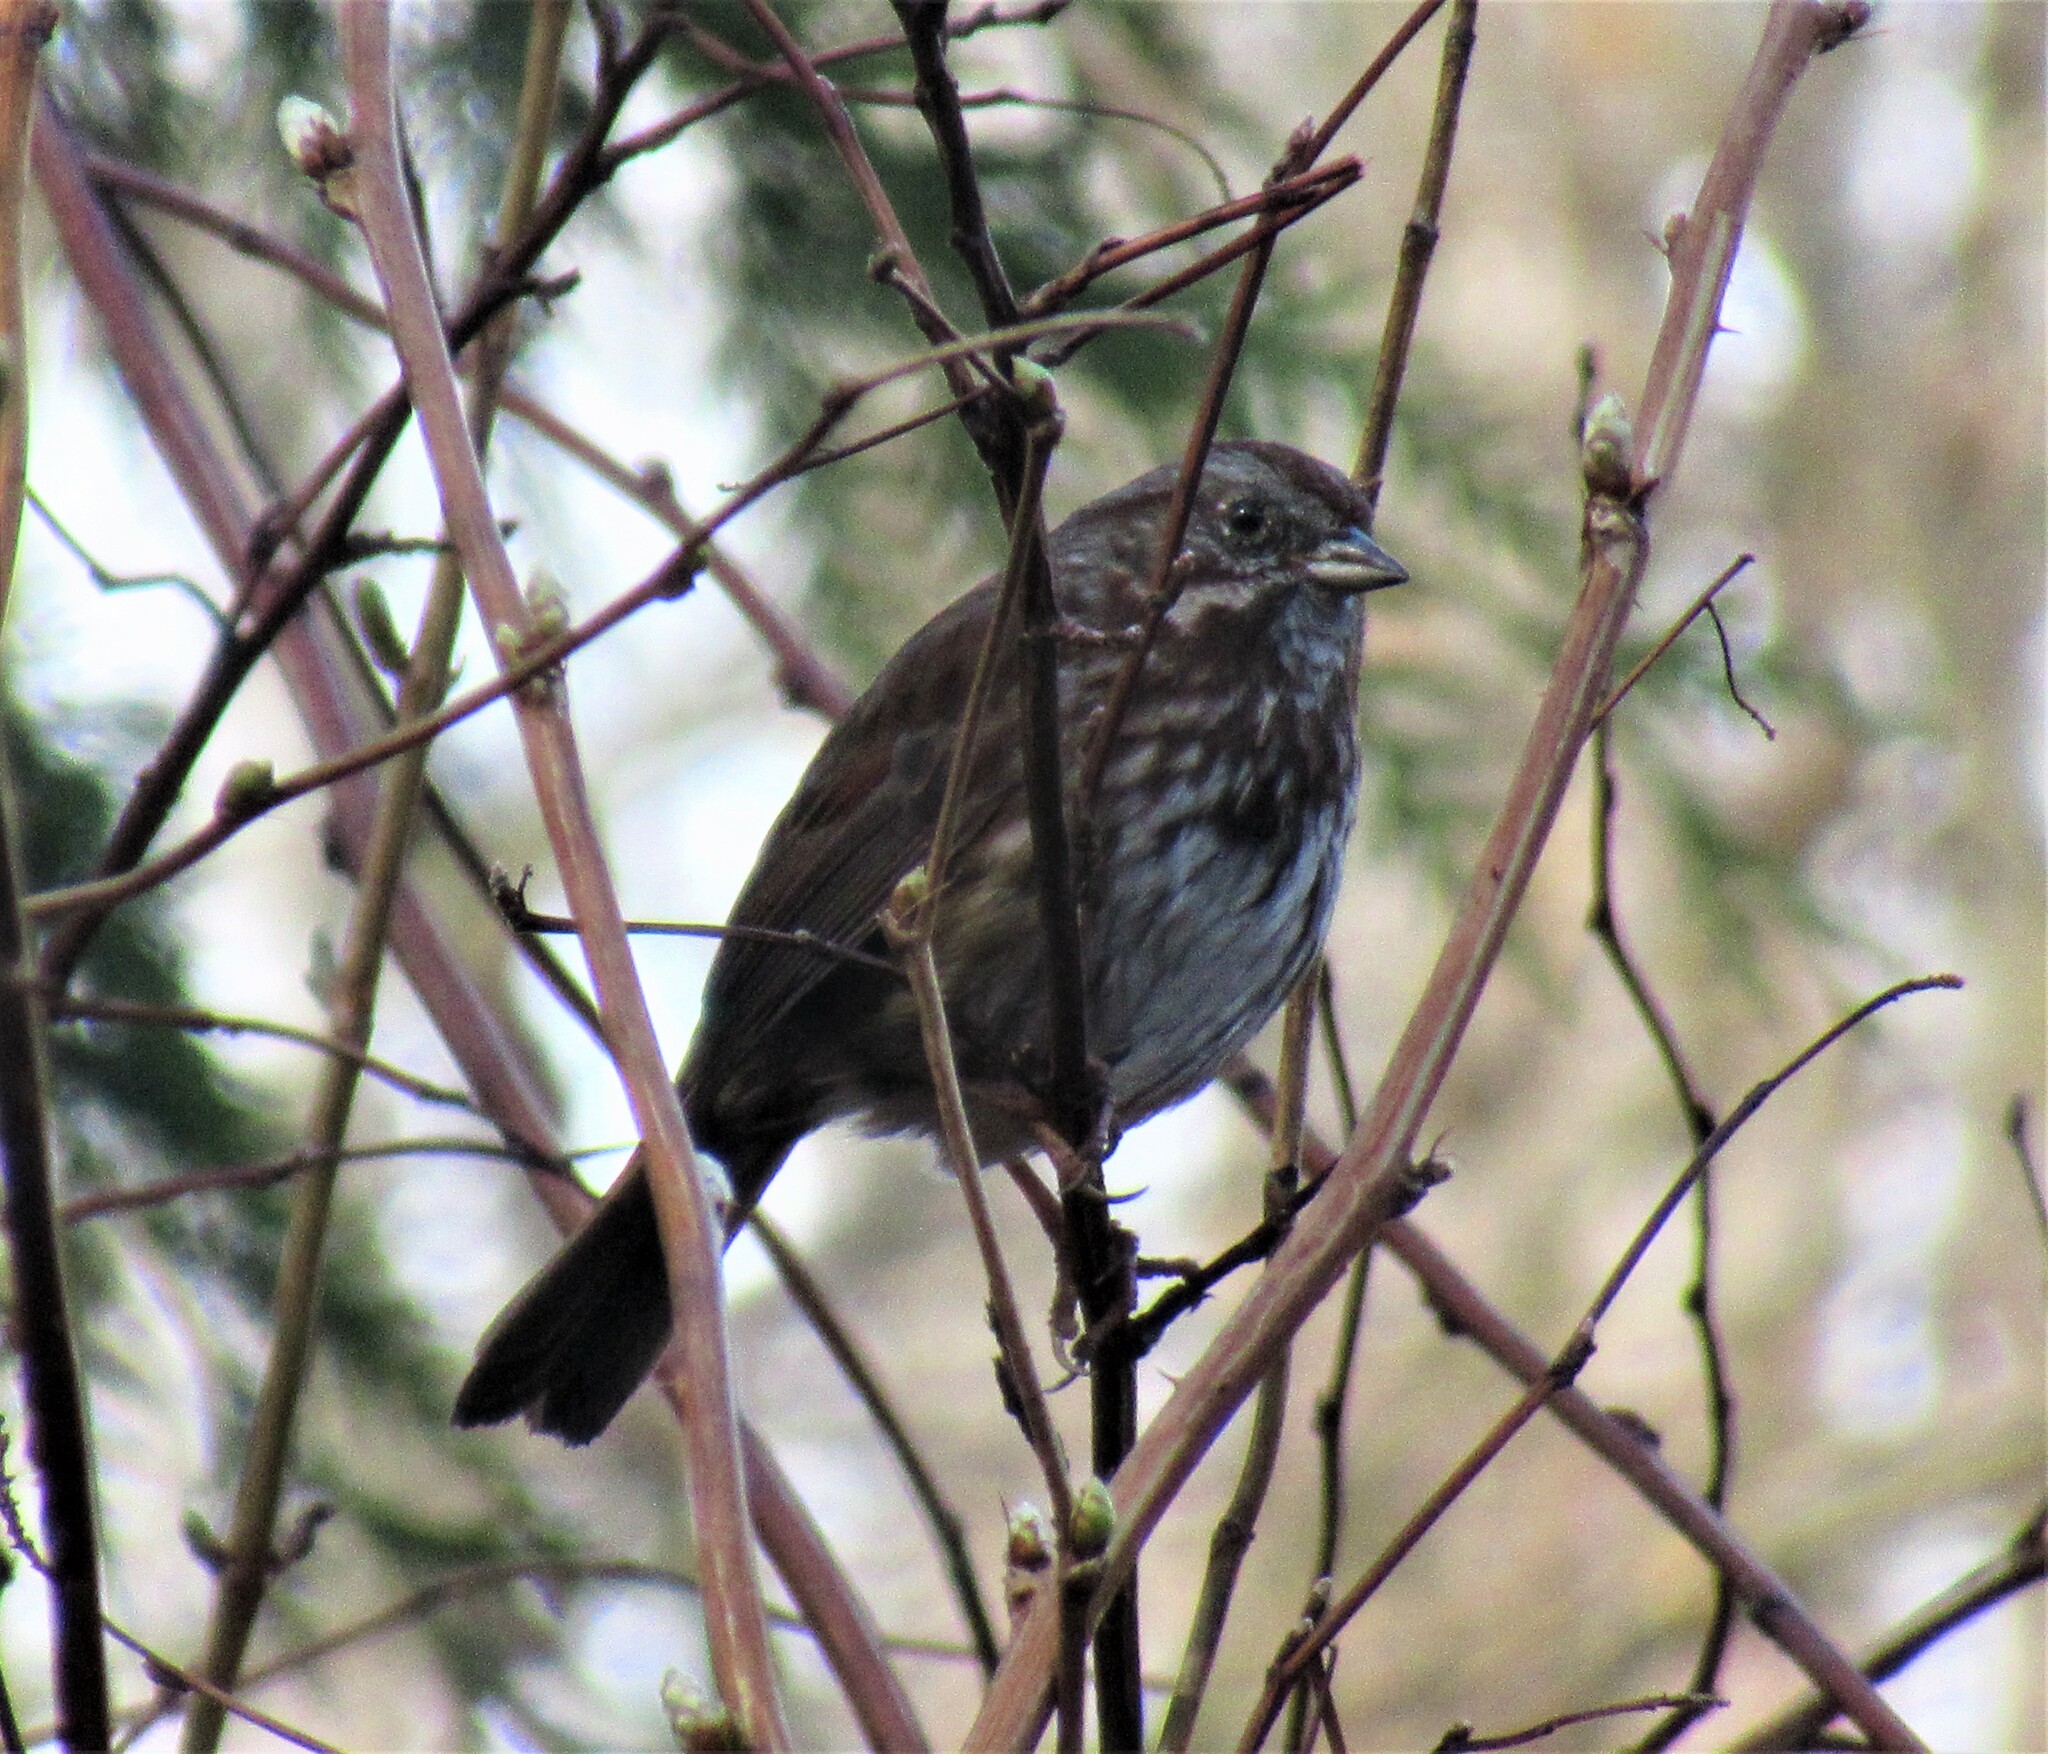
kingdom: Animalia
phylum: Chordata
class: Aves
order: Passeriformes
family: Passerellidae
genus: Melospiza
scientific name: Melospiza melodia
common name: Song sparrow
